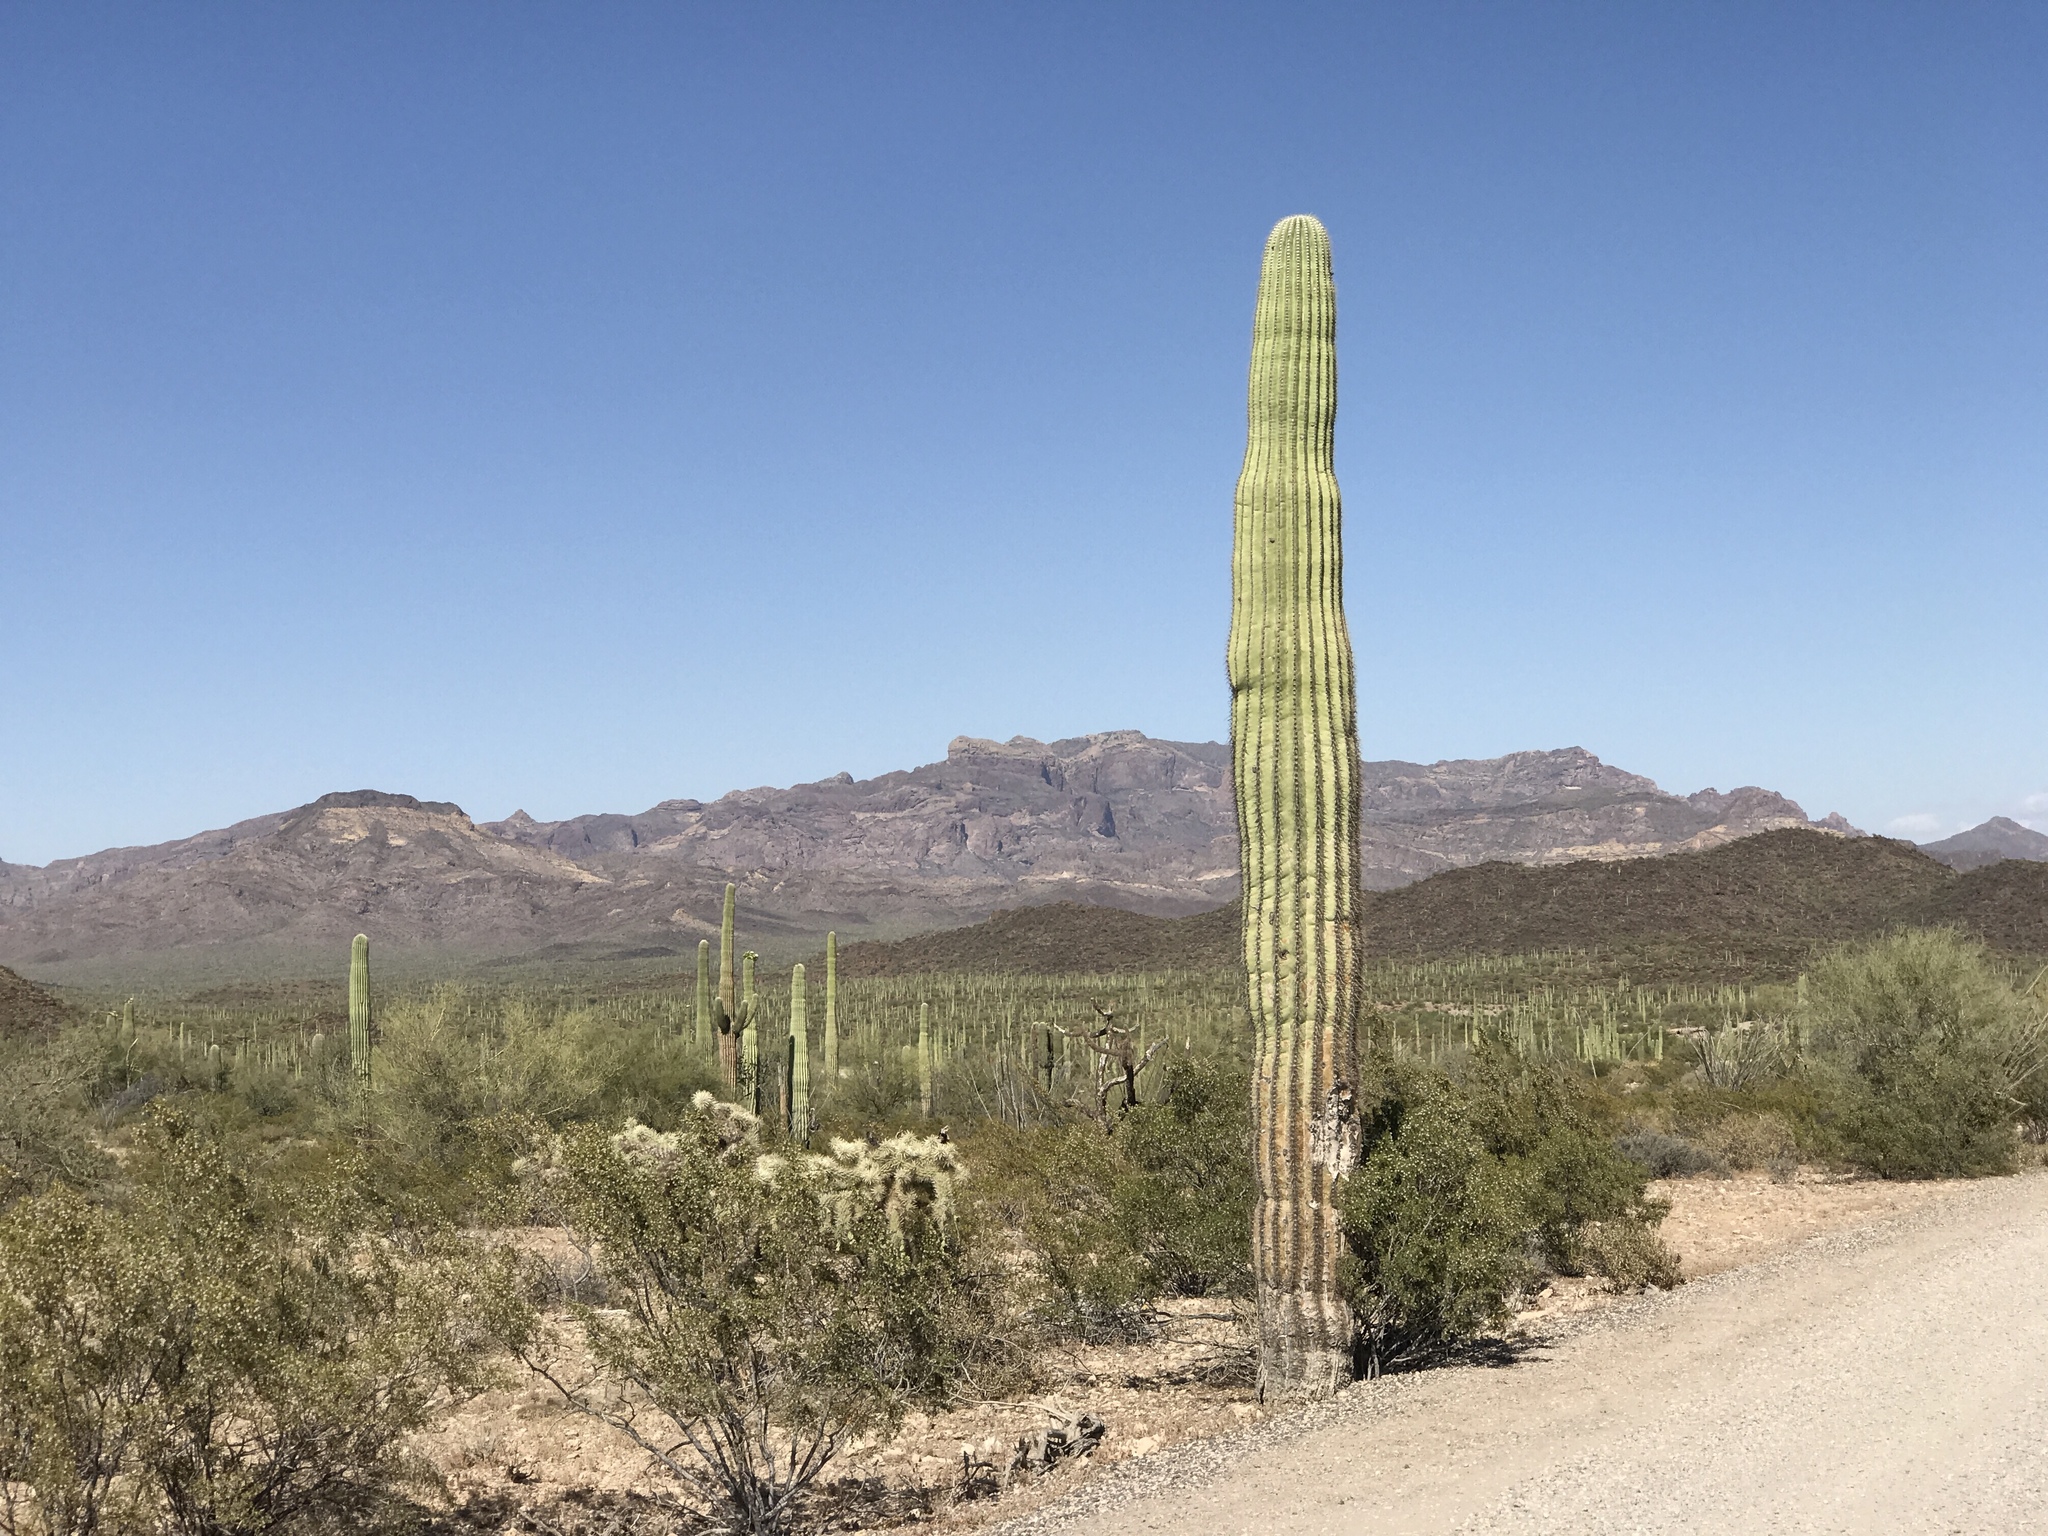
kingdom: Plantae
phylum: Tracheophyta
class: Magnoliopsida
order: Caryophyllales
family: Cactaceae
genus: Carnegiea
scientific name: Carnegiea gigantea
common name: Saguaro
